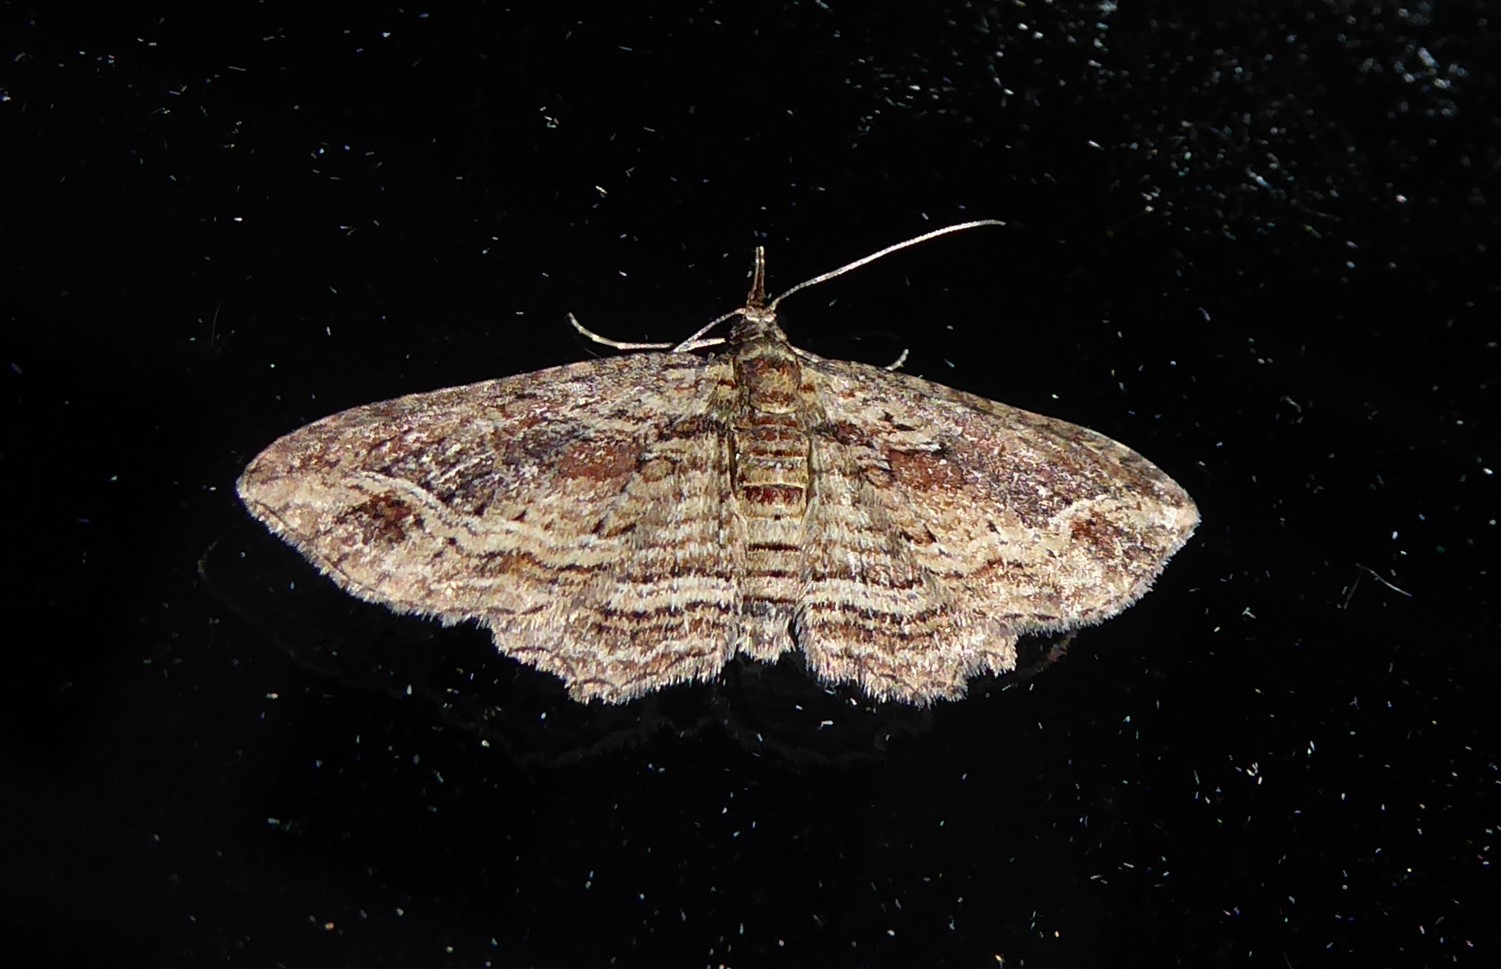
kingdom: Animalia
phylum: Arthropoda
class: Insecta
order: Lepidoptera
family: Geometridae
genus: Chloroclystis
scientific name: Chloroclystis filata
